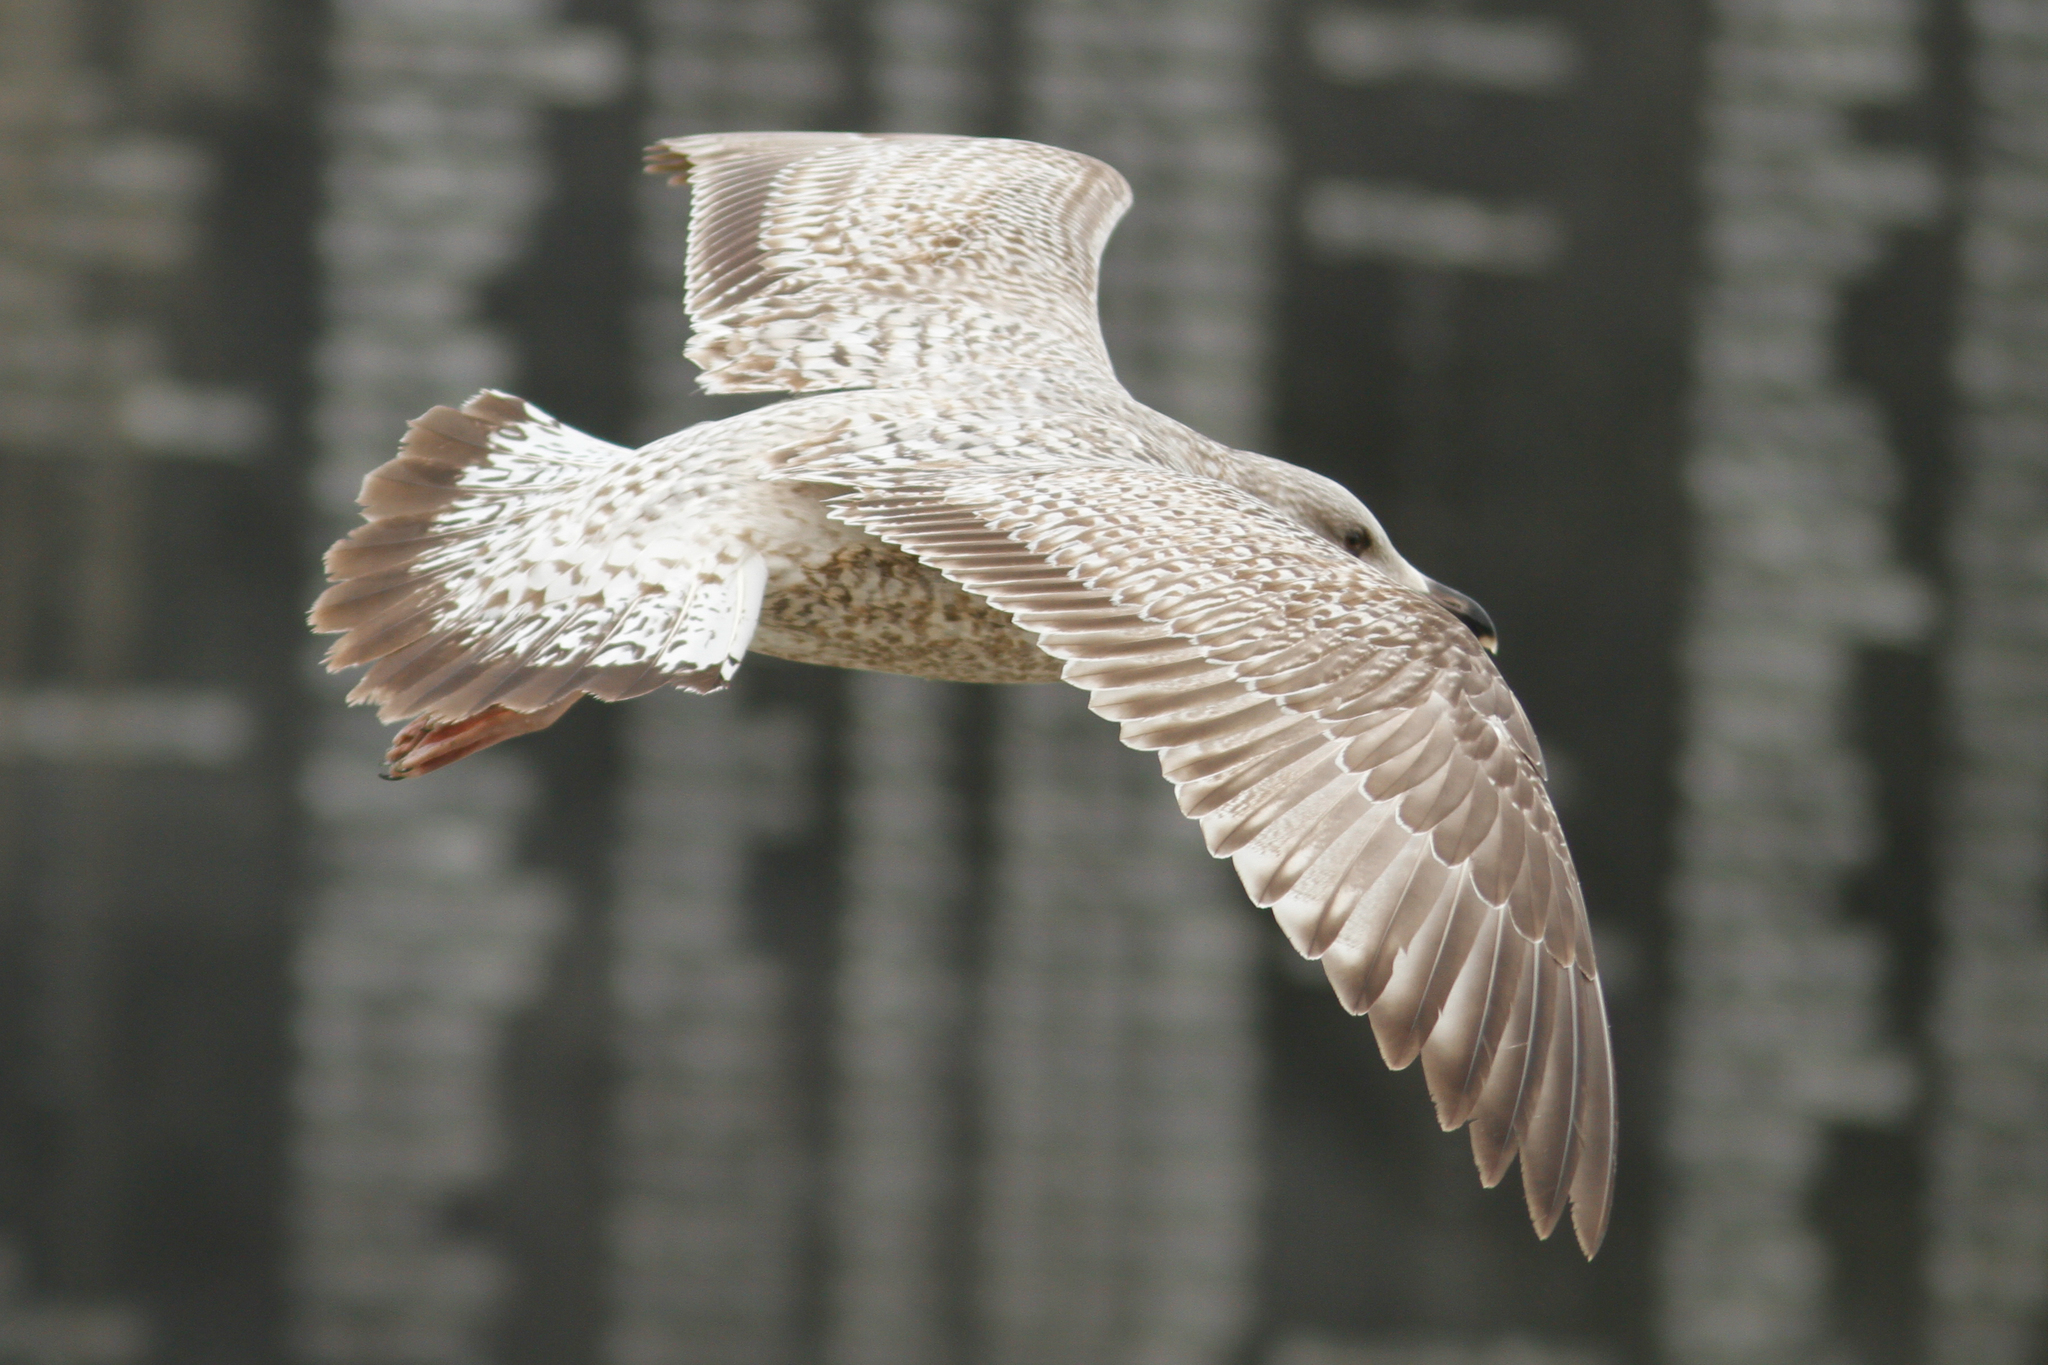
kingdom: Animalia
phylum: Chordata
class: Aves
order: Charadriiformes
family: Laridae
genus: Larus
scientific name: Larus argentatus
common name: Herring gull
